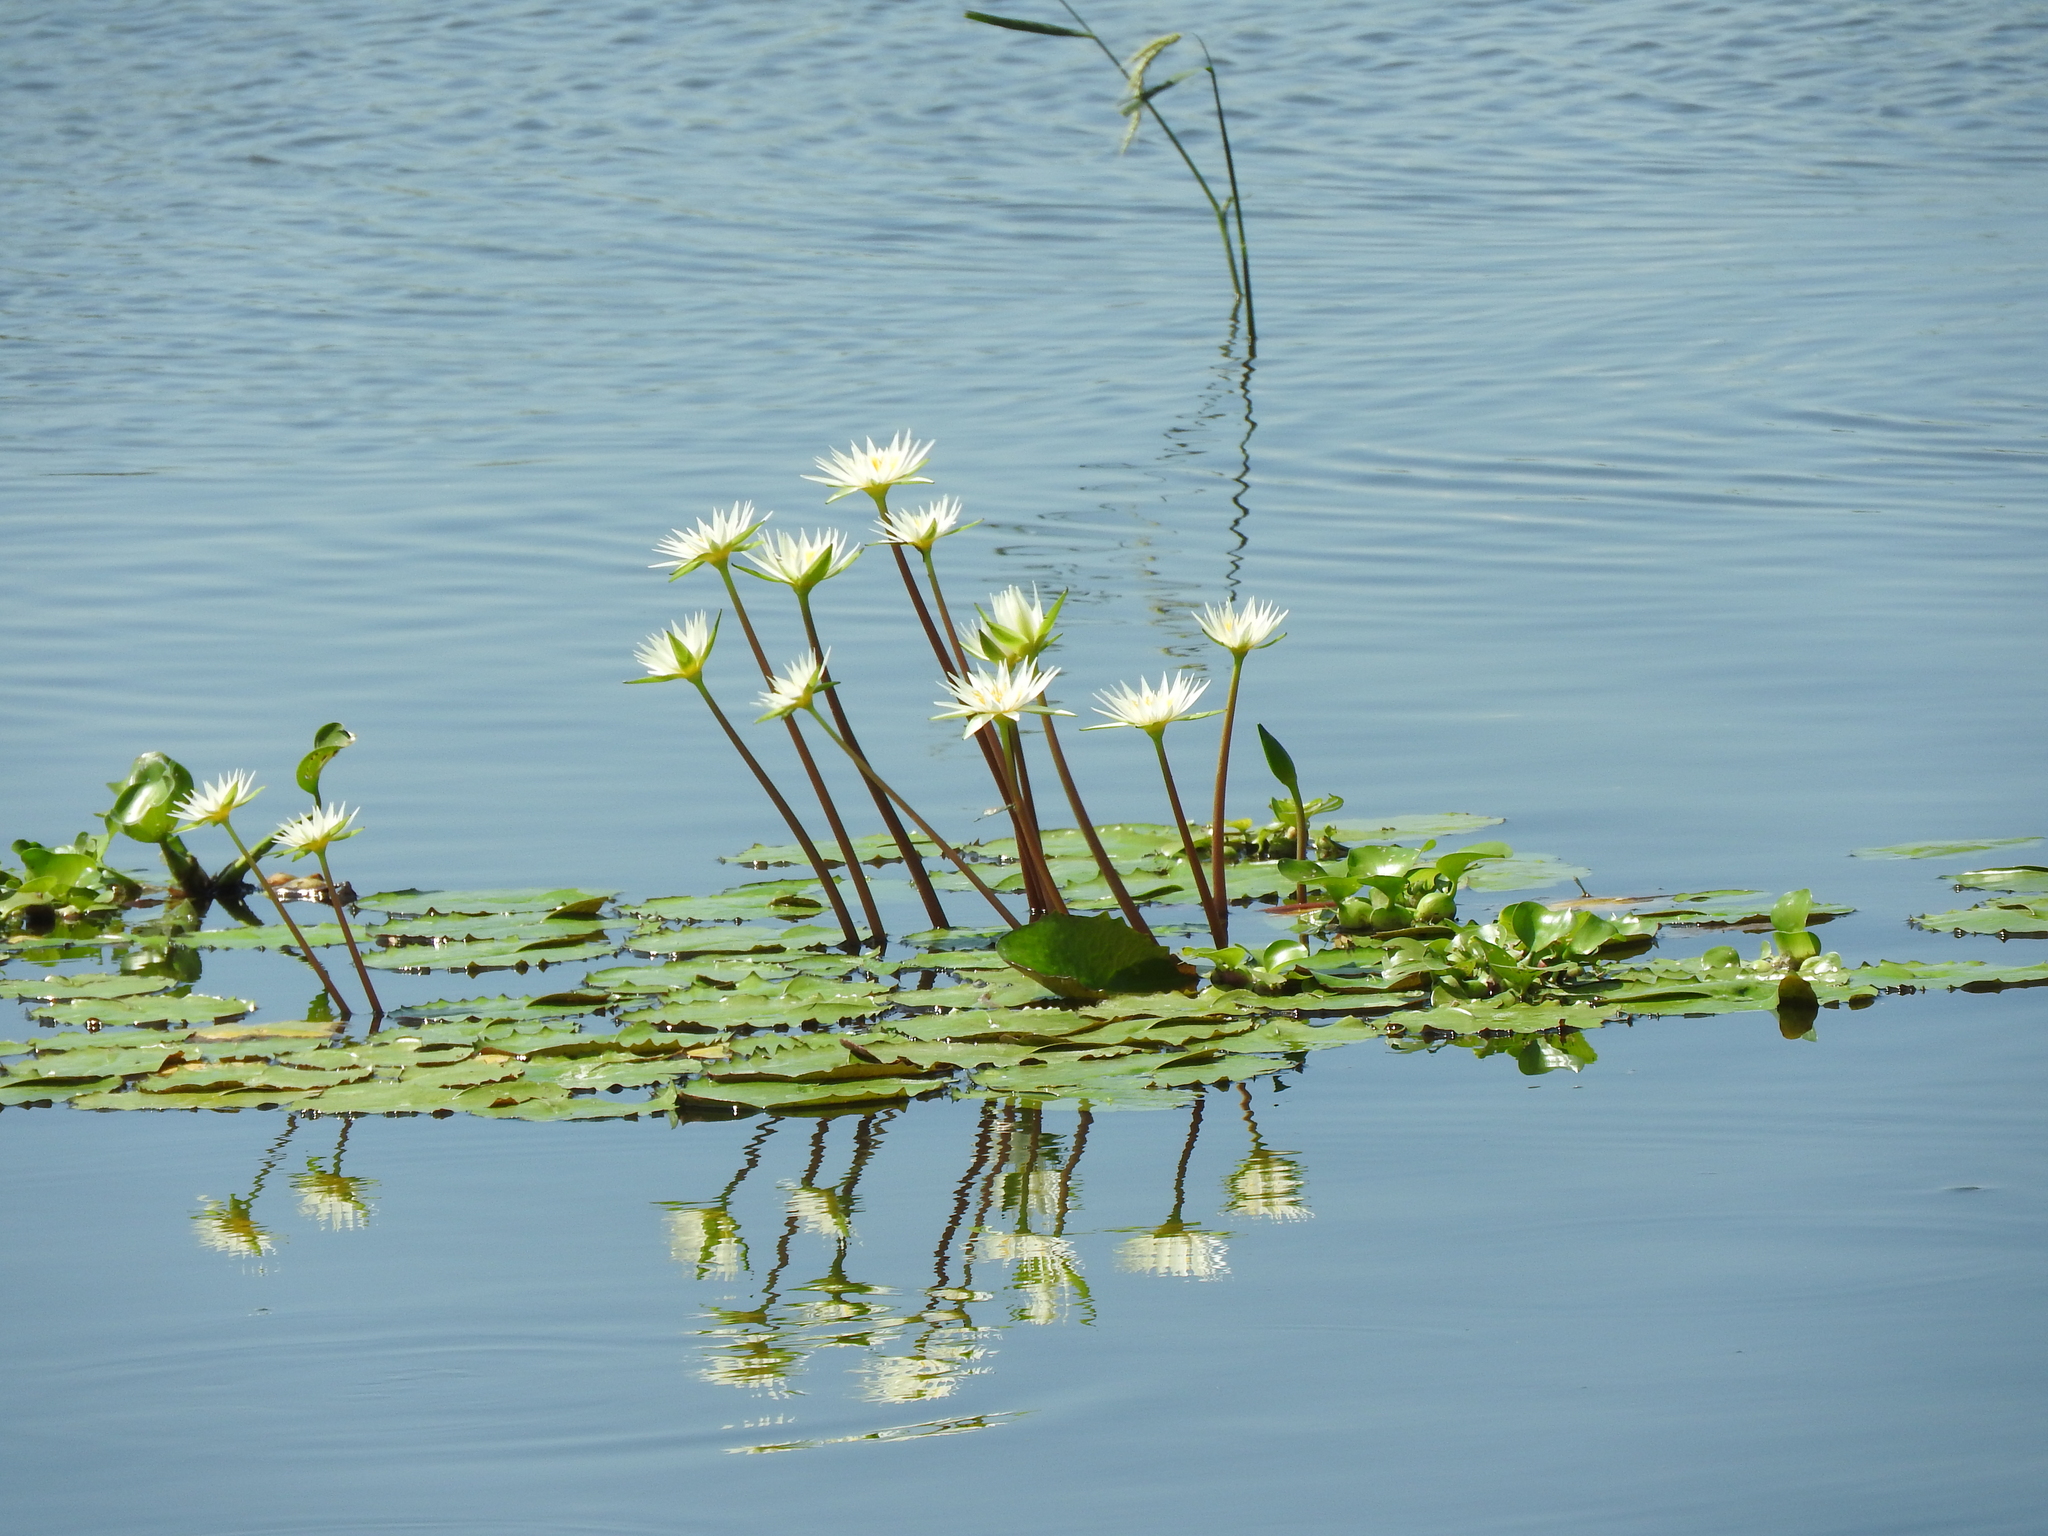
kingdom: Plantae
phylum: Tracheophyta
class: Magnoliopsida
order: Nymphaeales
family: Nymphaeaceae
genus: Nymphaea
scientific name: Nymphaea gracilis
